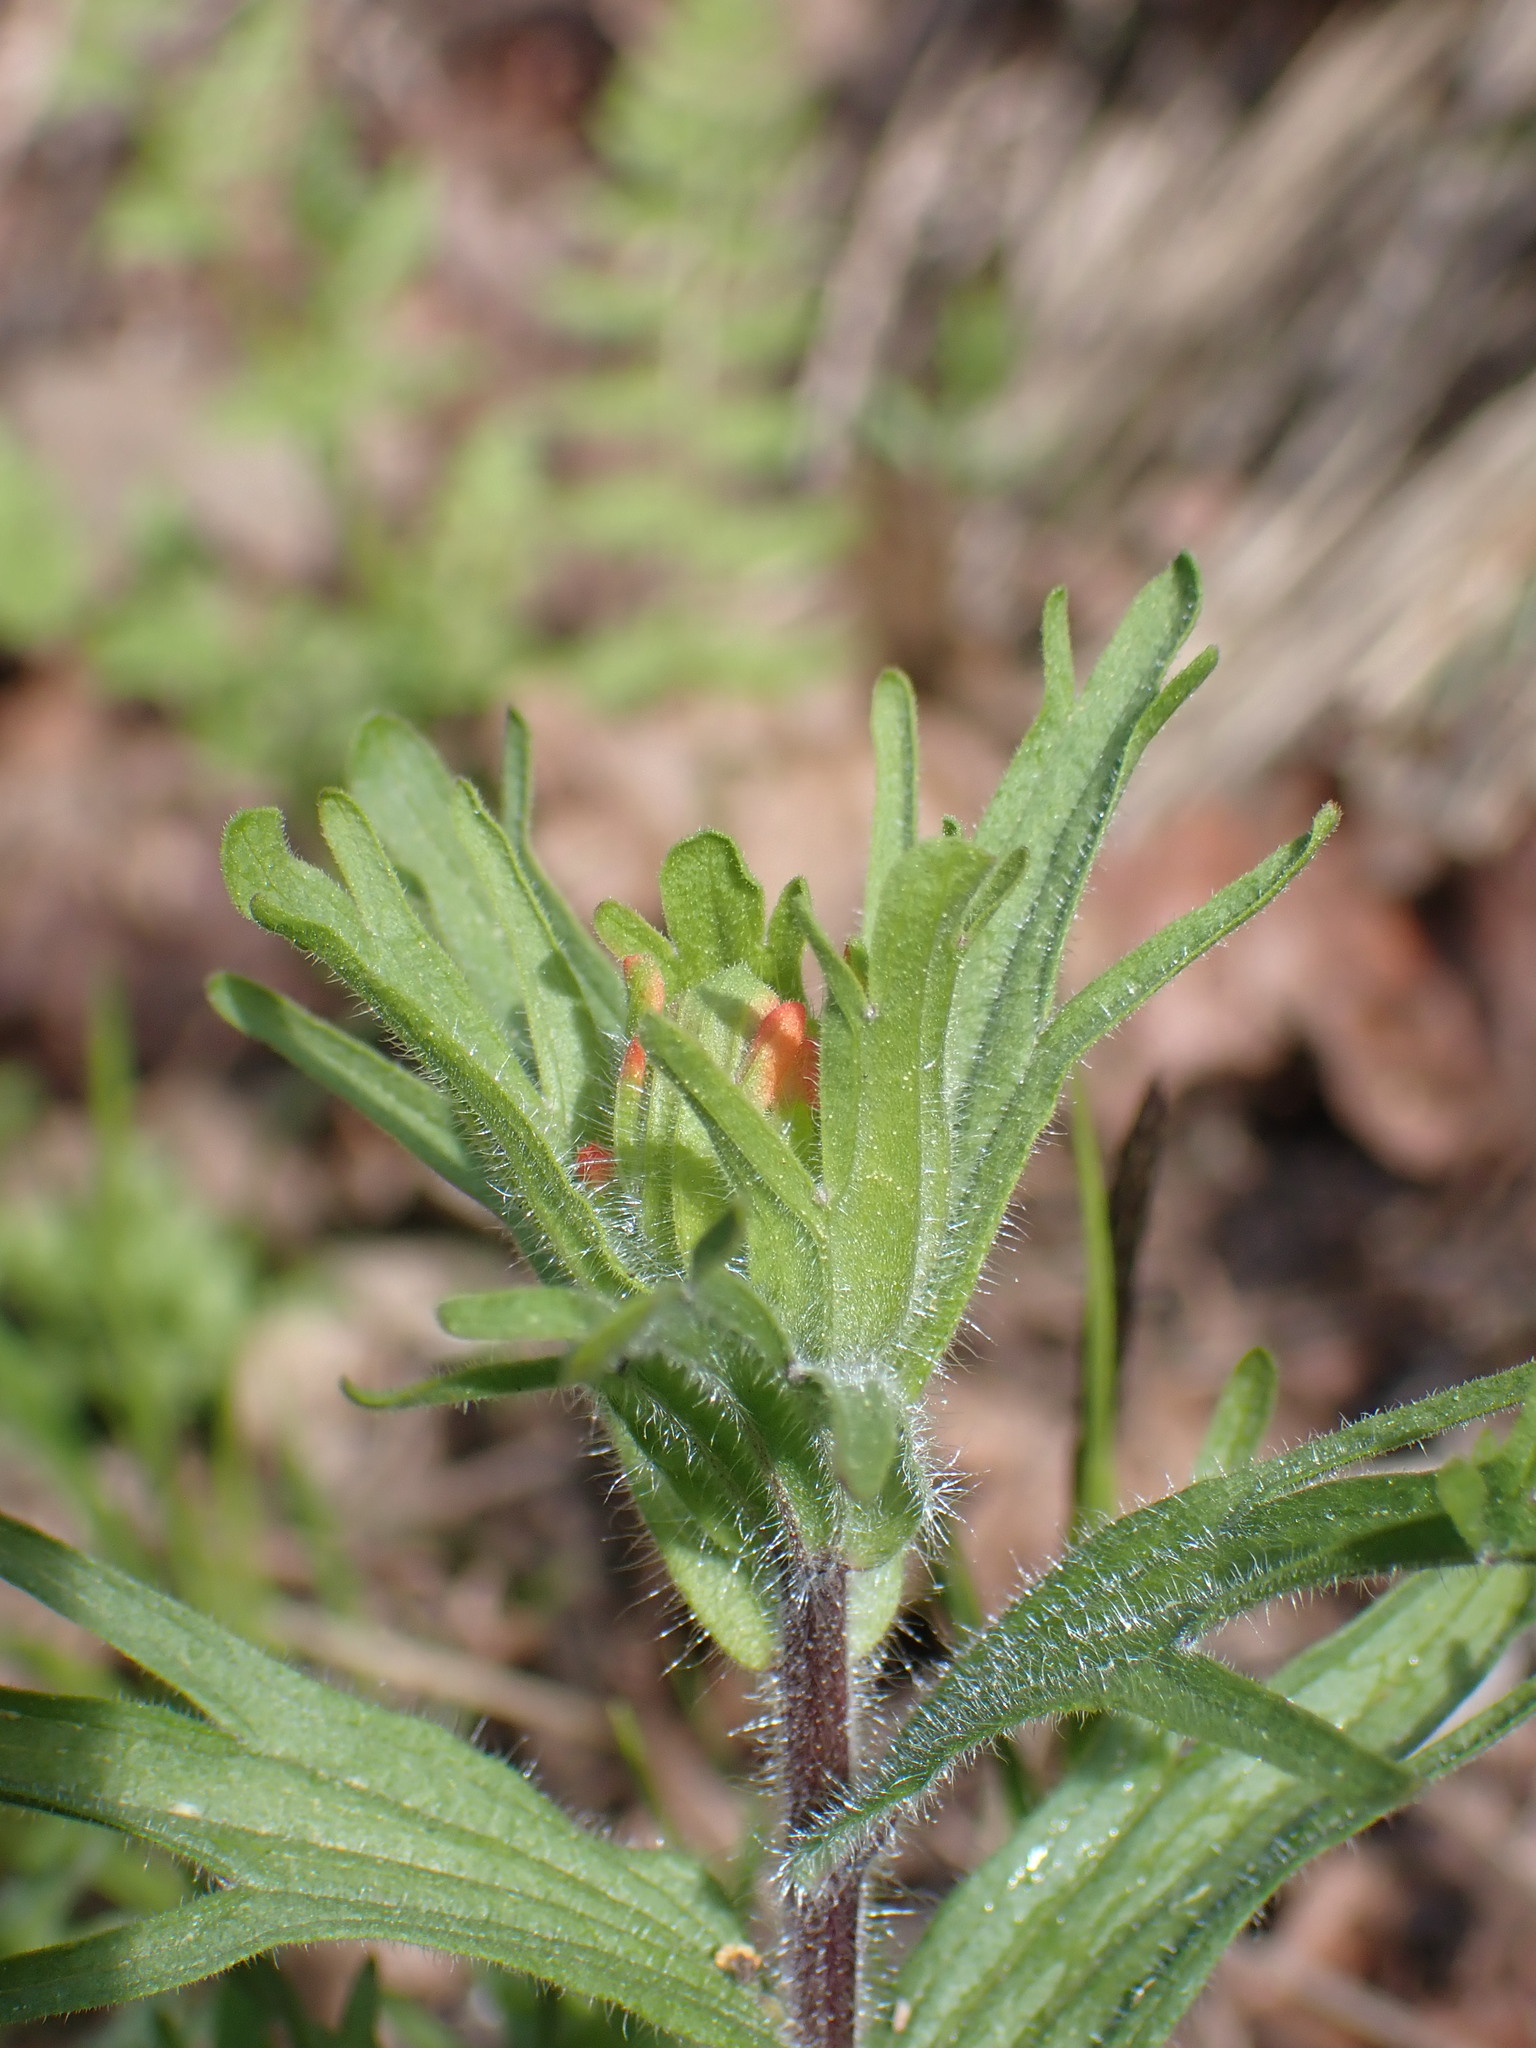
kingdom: Plantae
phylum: Tracheophyta
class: Magnoliopsida
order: Lamiales
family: Orobanchaceae
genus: Castilleja
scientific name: Castilleja hispida
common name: Bristly paintbrush
